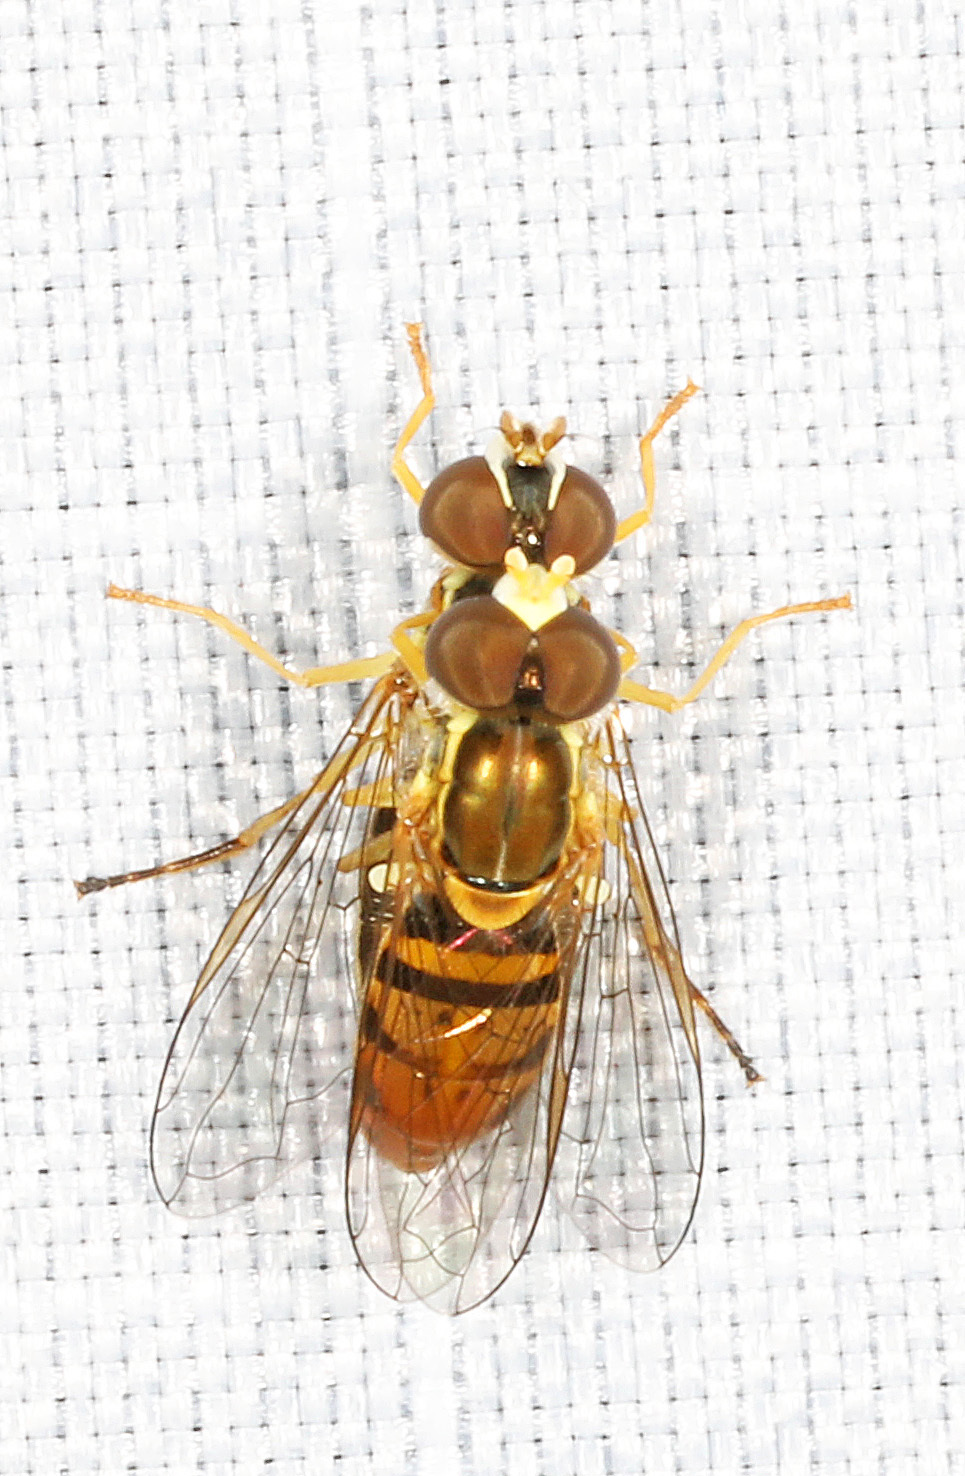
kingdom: Animalia
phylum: Arthropoda
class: Insecta
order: Diptera
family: Syrphidae
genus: Toxomerus
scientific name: Toxomerus marginatus
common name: Syrphid fly
